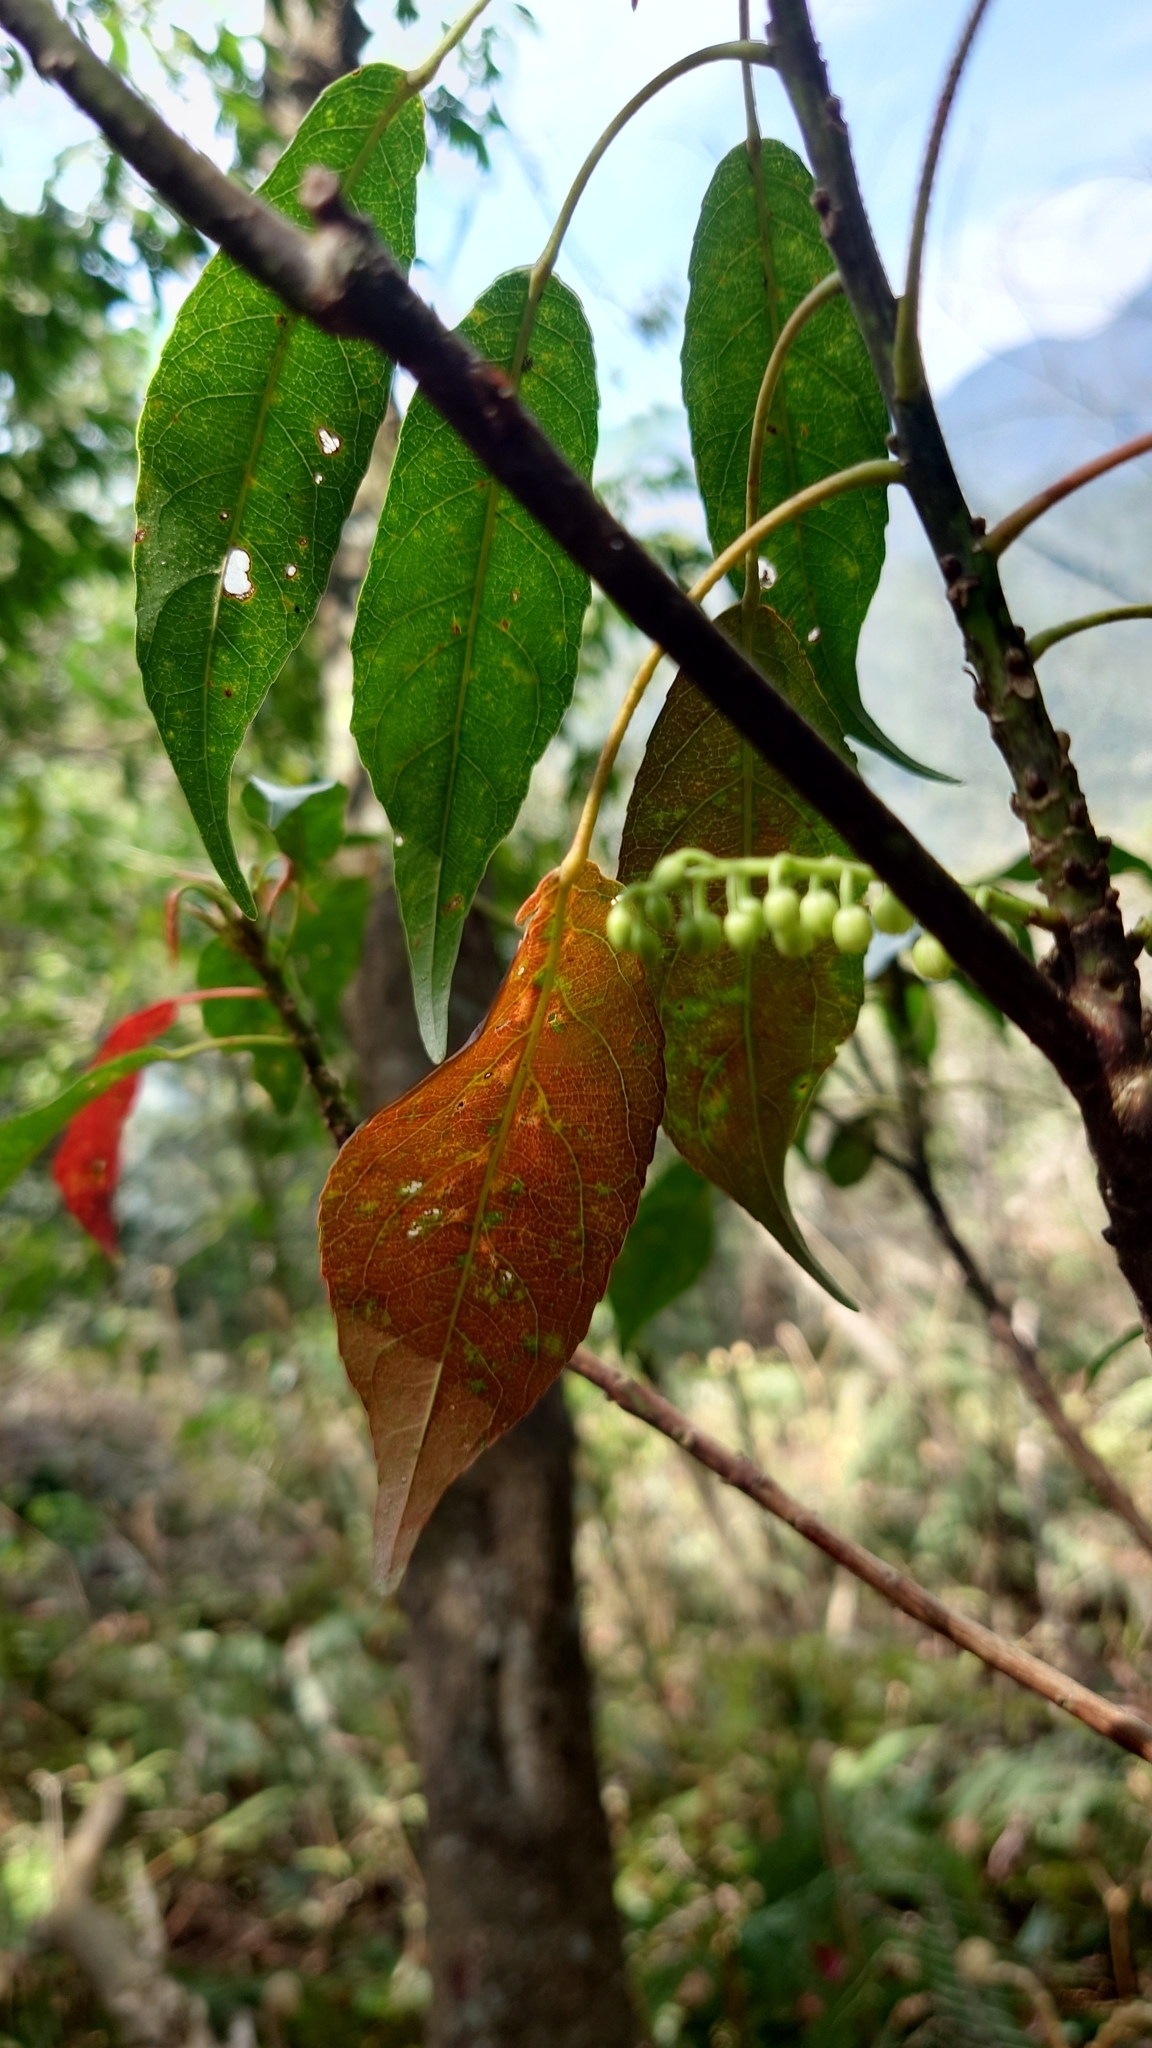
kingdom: Plantae
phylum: Tracheophyta
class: Magnoliopsida
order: Oxalidales
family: Elaeocarpaceae
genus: Elaeocarpus
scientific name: Elaeocarpus japonicus
